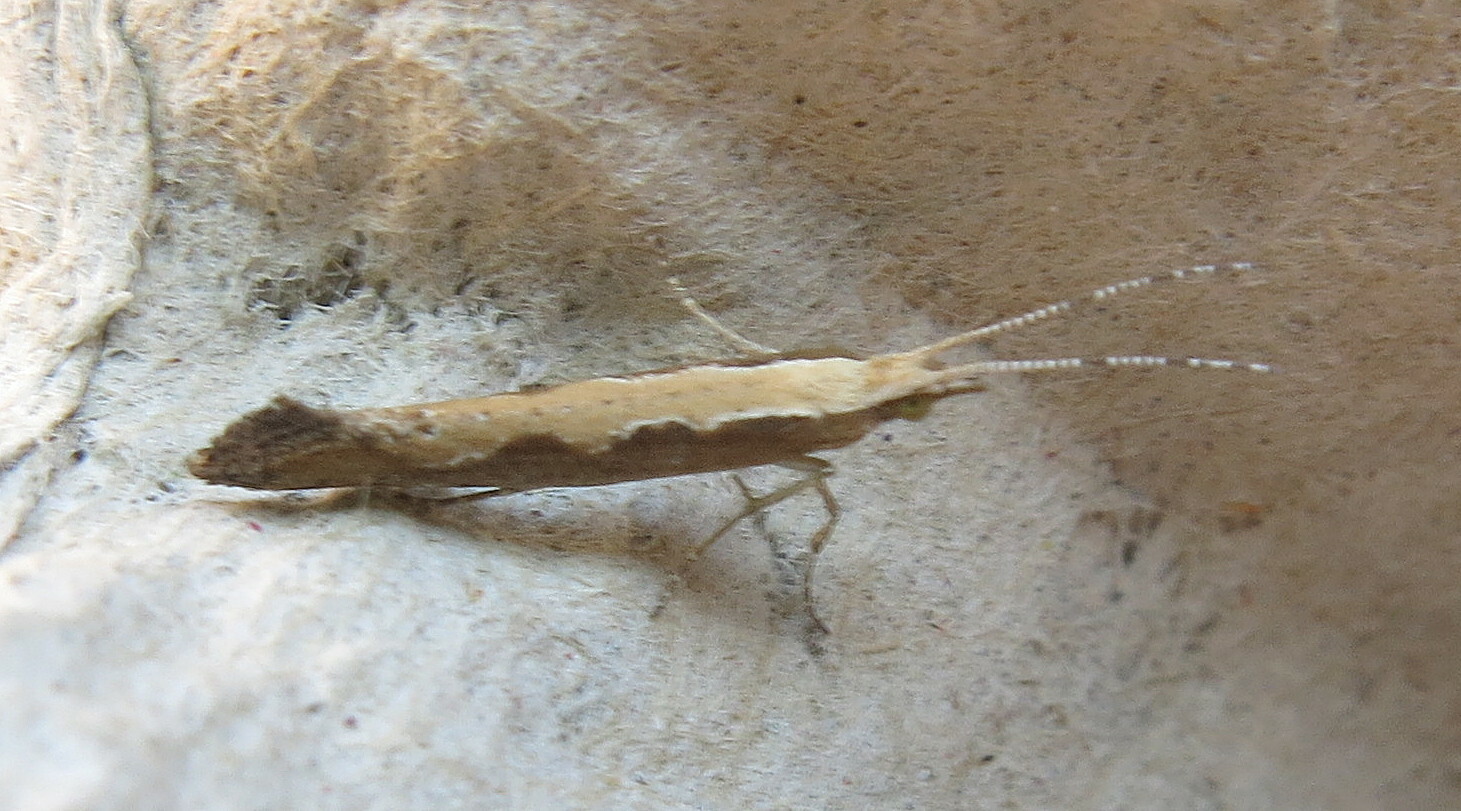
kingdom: Animalia
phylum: Arthropoda
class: Insecta
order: Lepidoptera
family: Plutellidae
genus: Plutella
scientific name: Plutella xylostella
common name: Diamond-back moth
